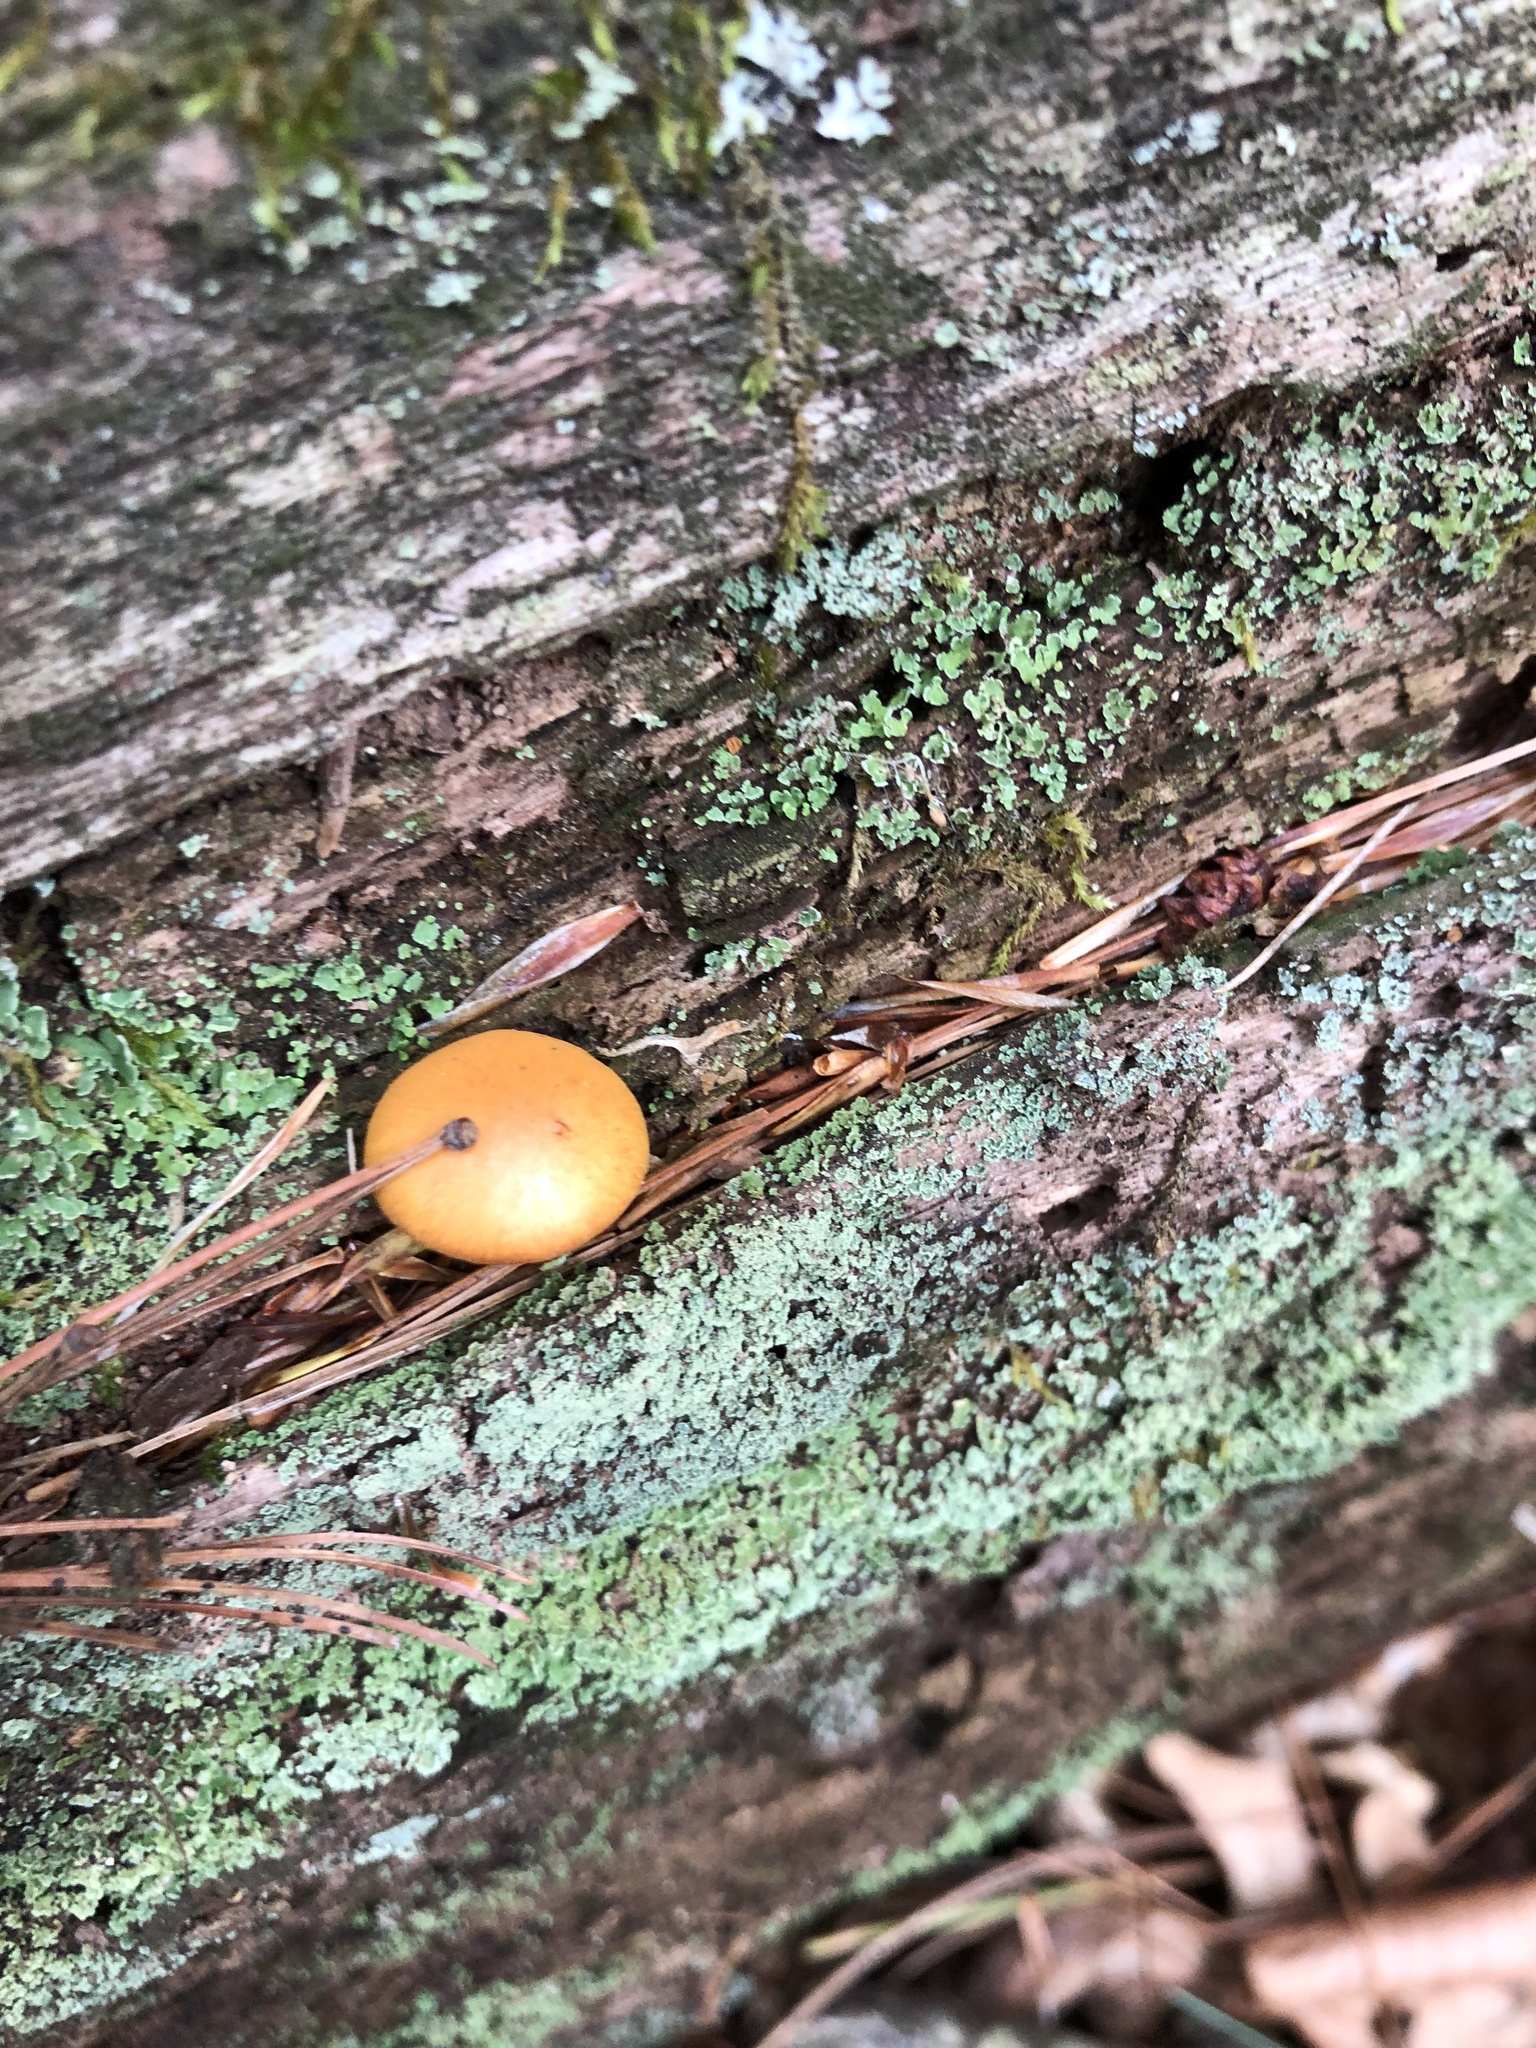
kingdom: Fungi
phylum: Basidiomycota
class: Agaricomycetes
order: Agaricales
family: Hymenogastraceae
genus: Galerina
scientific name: Galerina marginata
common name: Funeral bell
